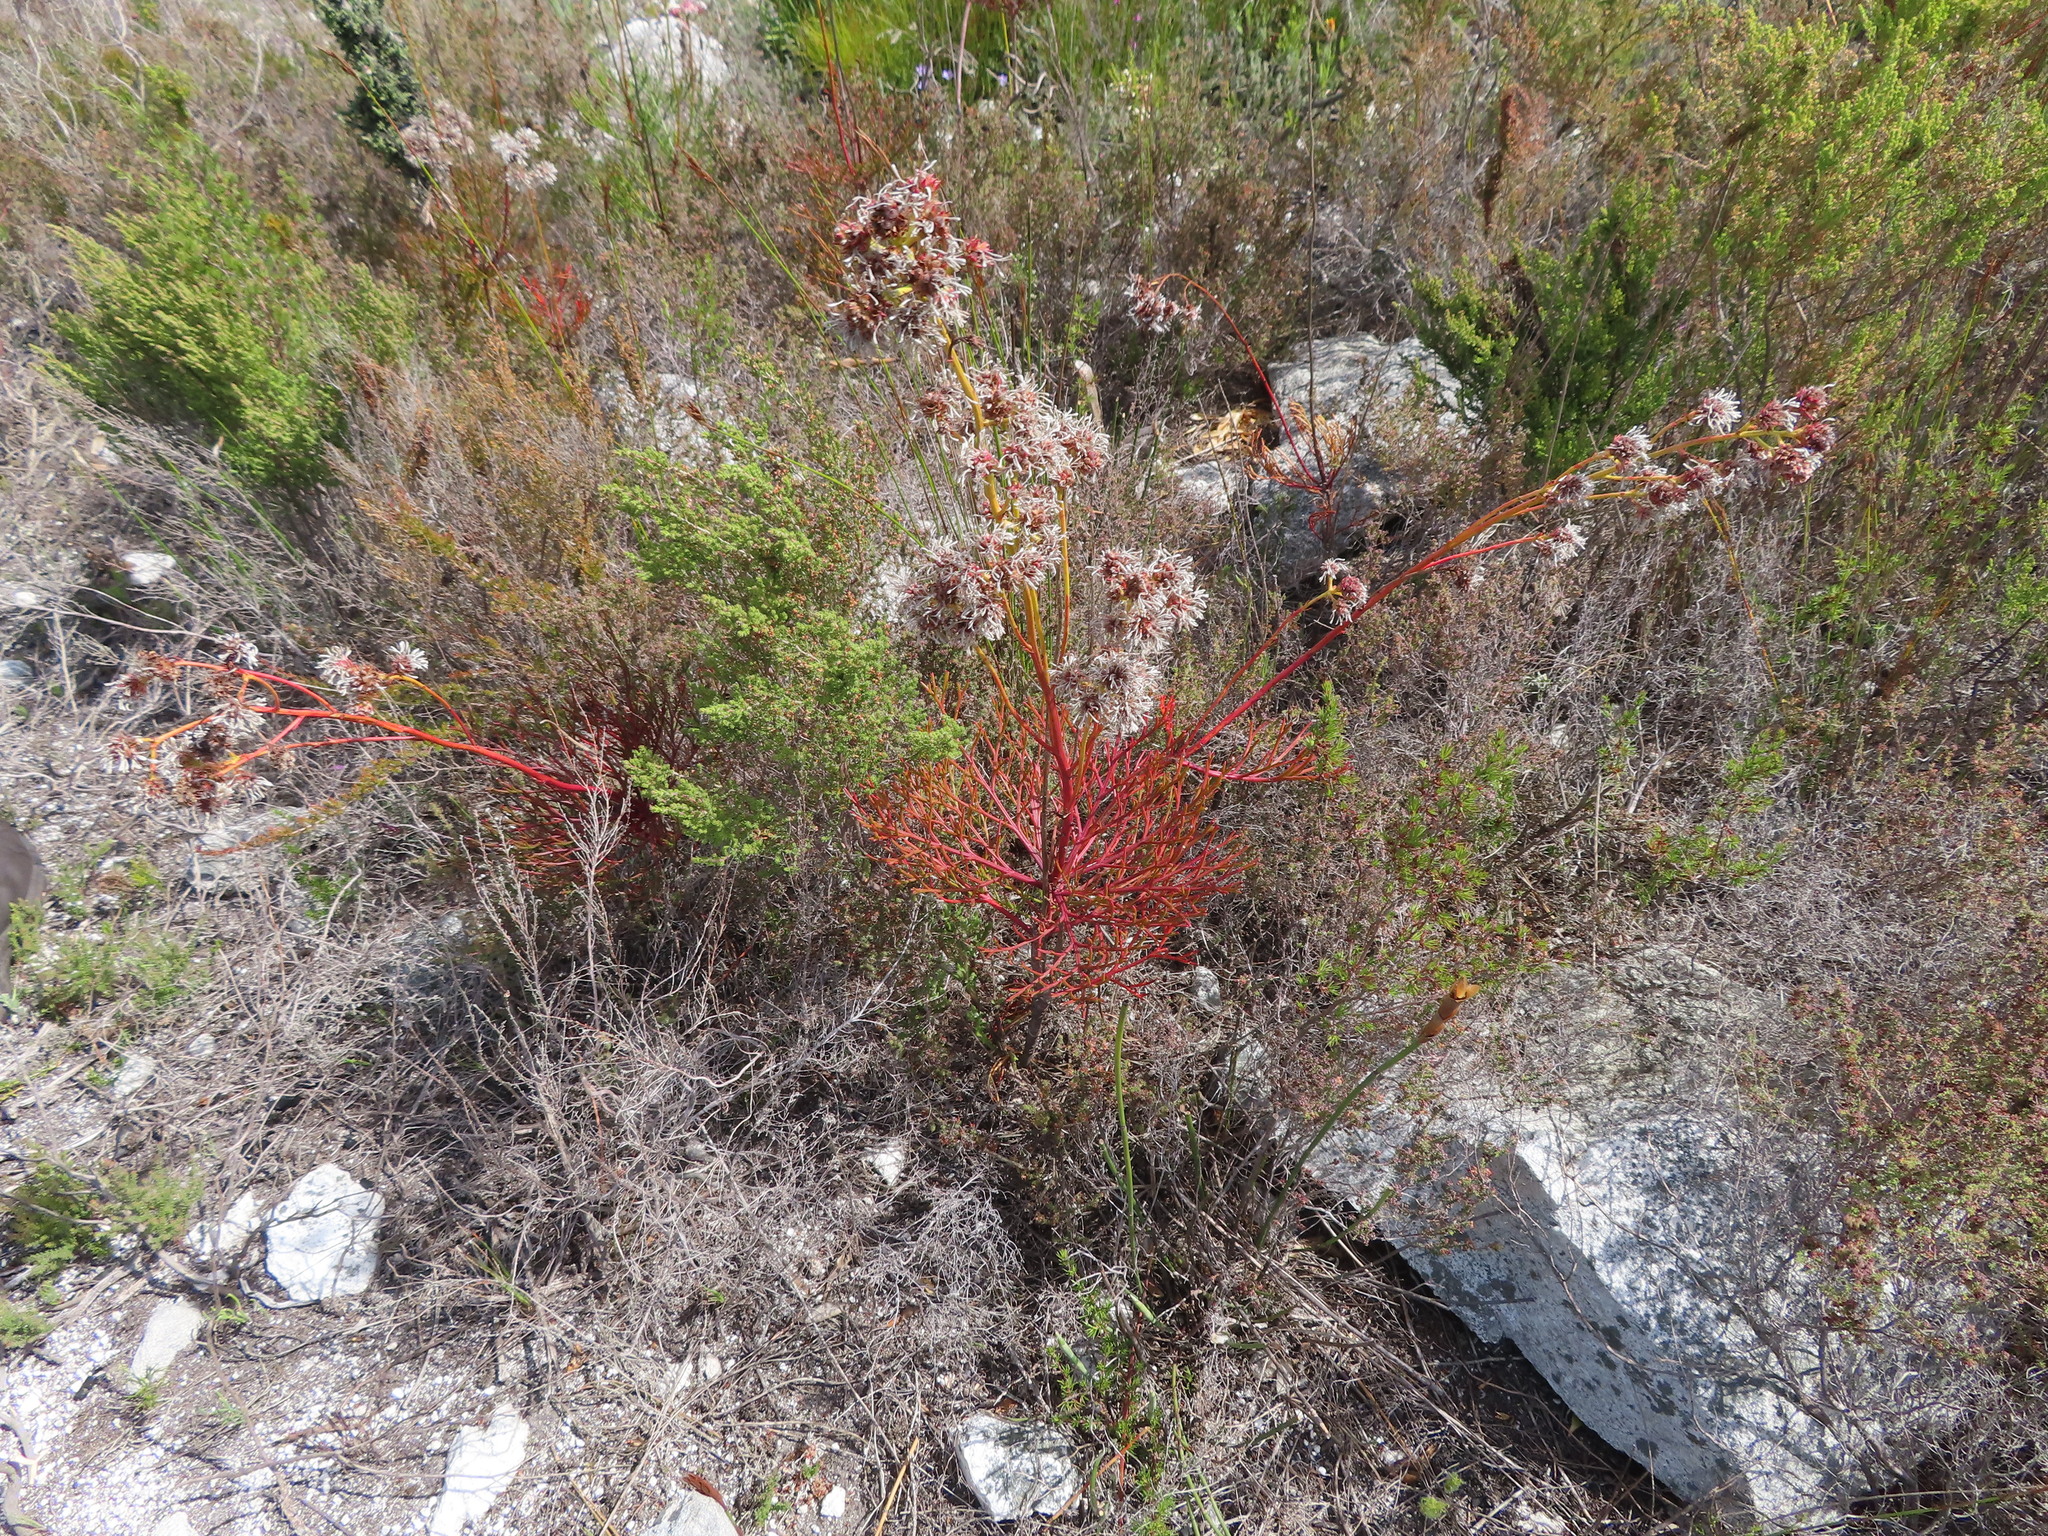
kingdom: Plantae
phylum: Tracheophyta
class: Magnoliopsida
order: Proteales
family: Proteaceae
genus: Serruria
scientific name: Serruria elongata
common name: Long-stalk spiderhead
